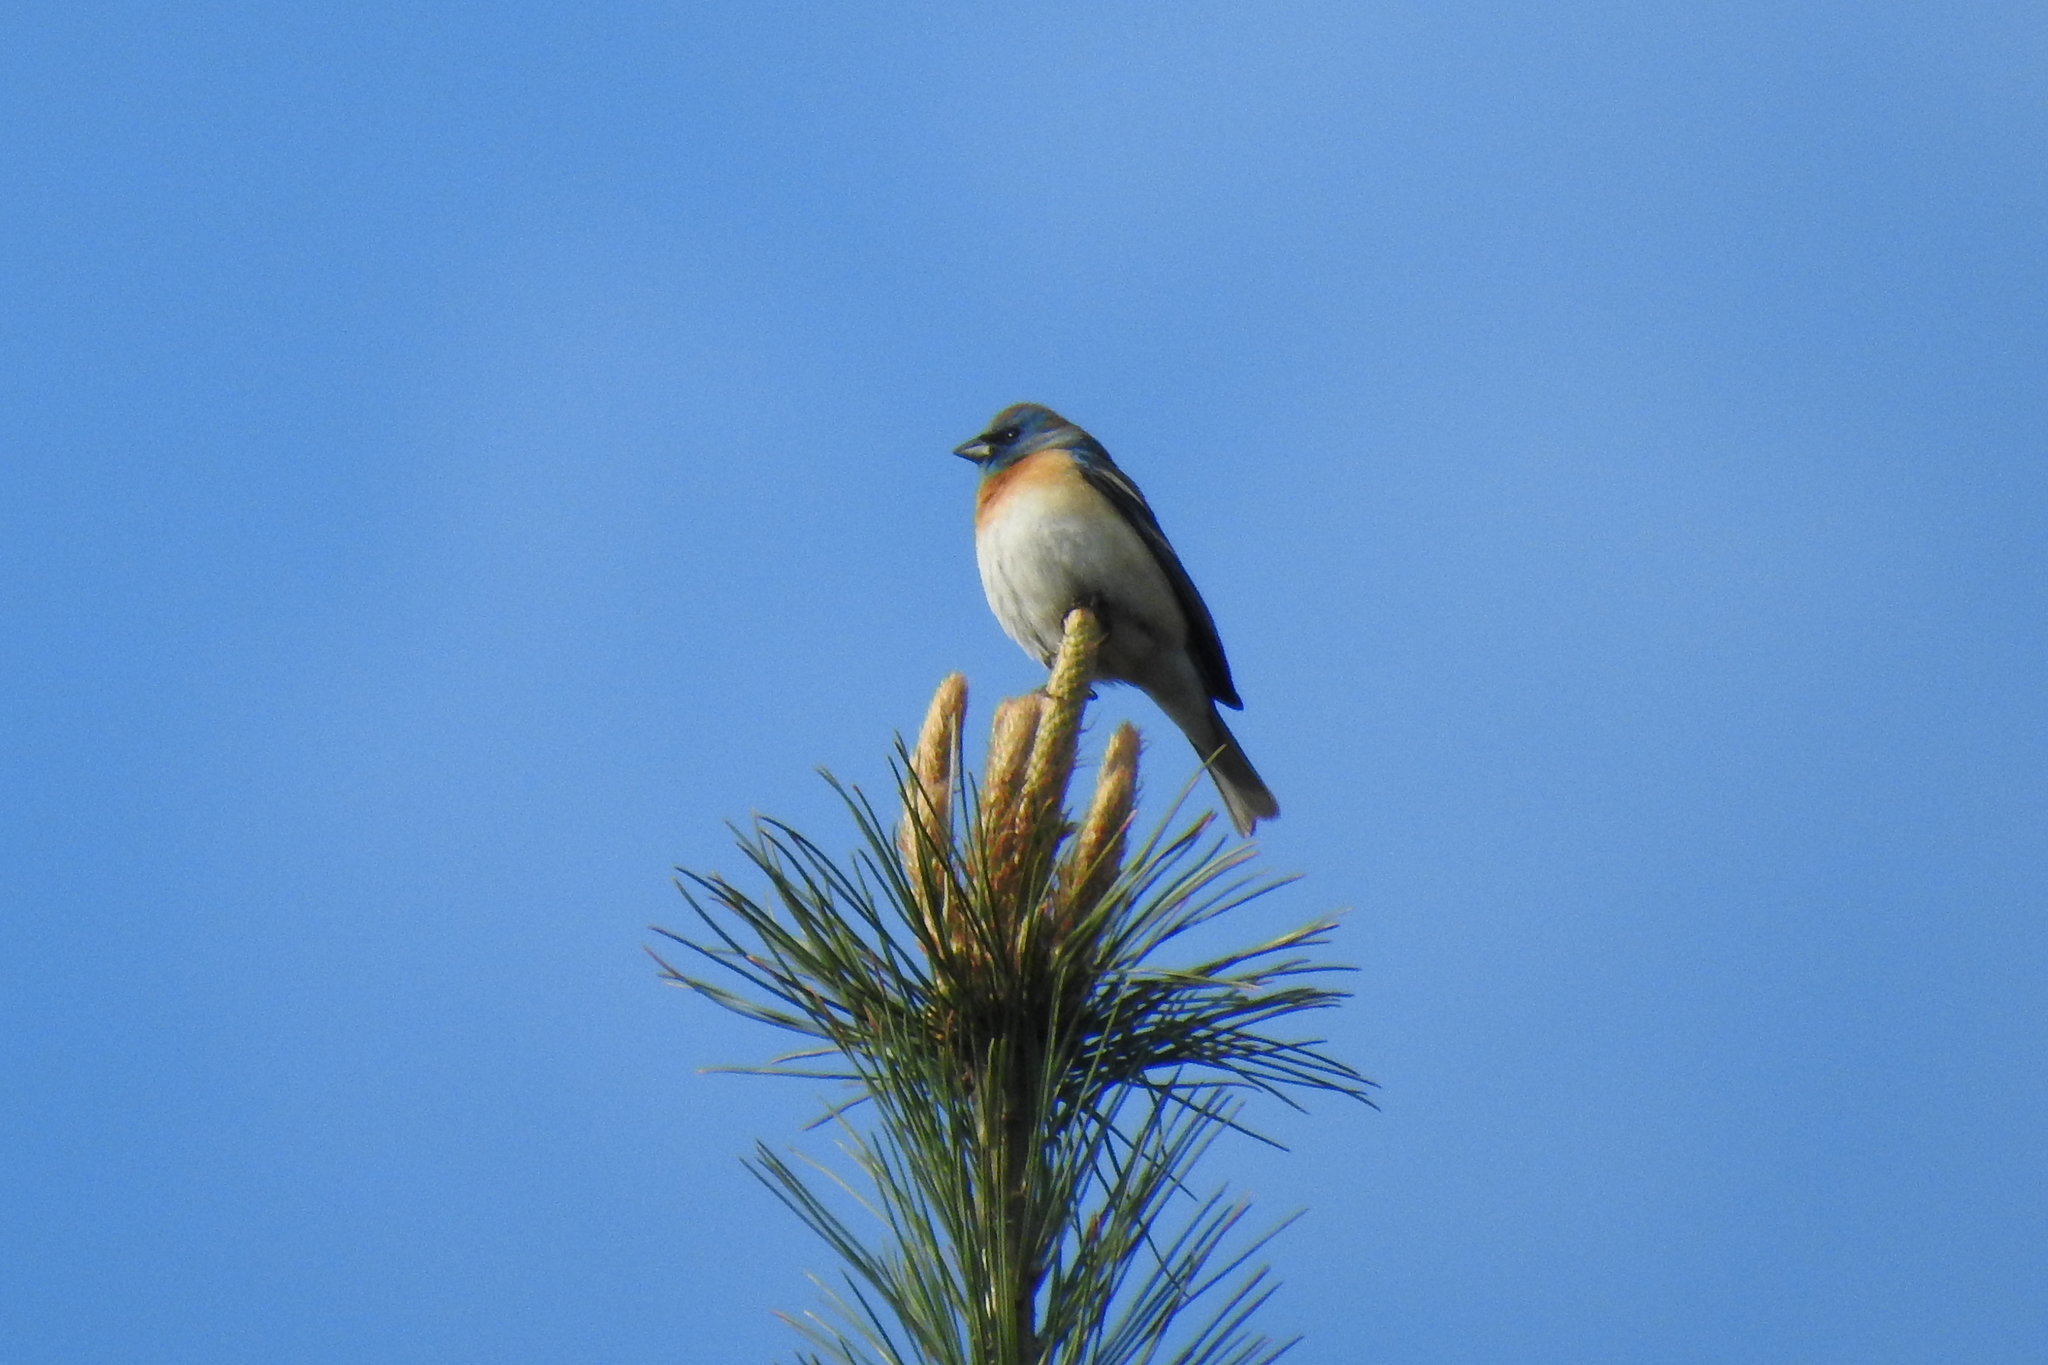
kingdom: Animalia
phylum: Chordata
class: Aves
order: Passeriformes
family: Cardinalidae
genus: Passerina
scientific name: Passerina amoena
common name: Lazuli bunting
